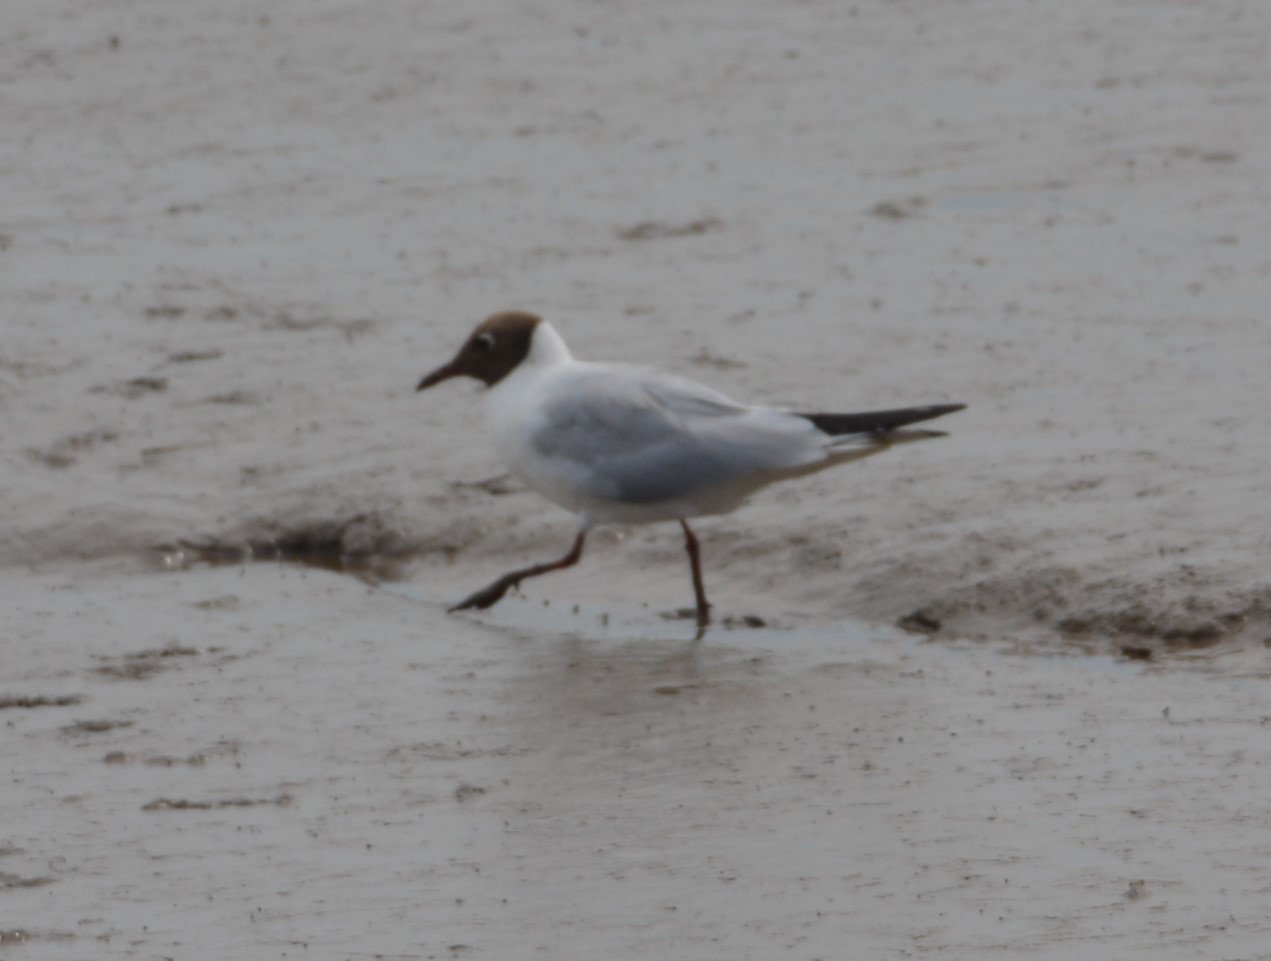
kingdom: Animalia
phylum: Chordata
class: Aves
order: Charadriiformes
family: Laridae
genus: Chroicocephalus
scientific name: Chroicocephalus ridibundus
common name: Black-headed gull
